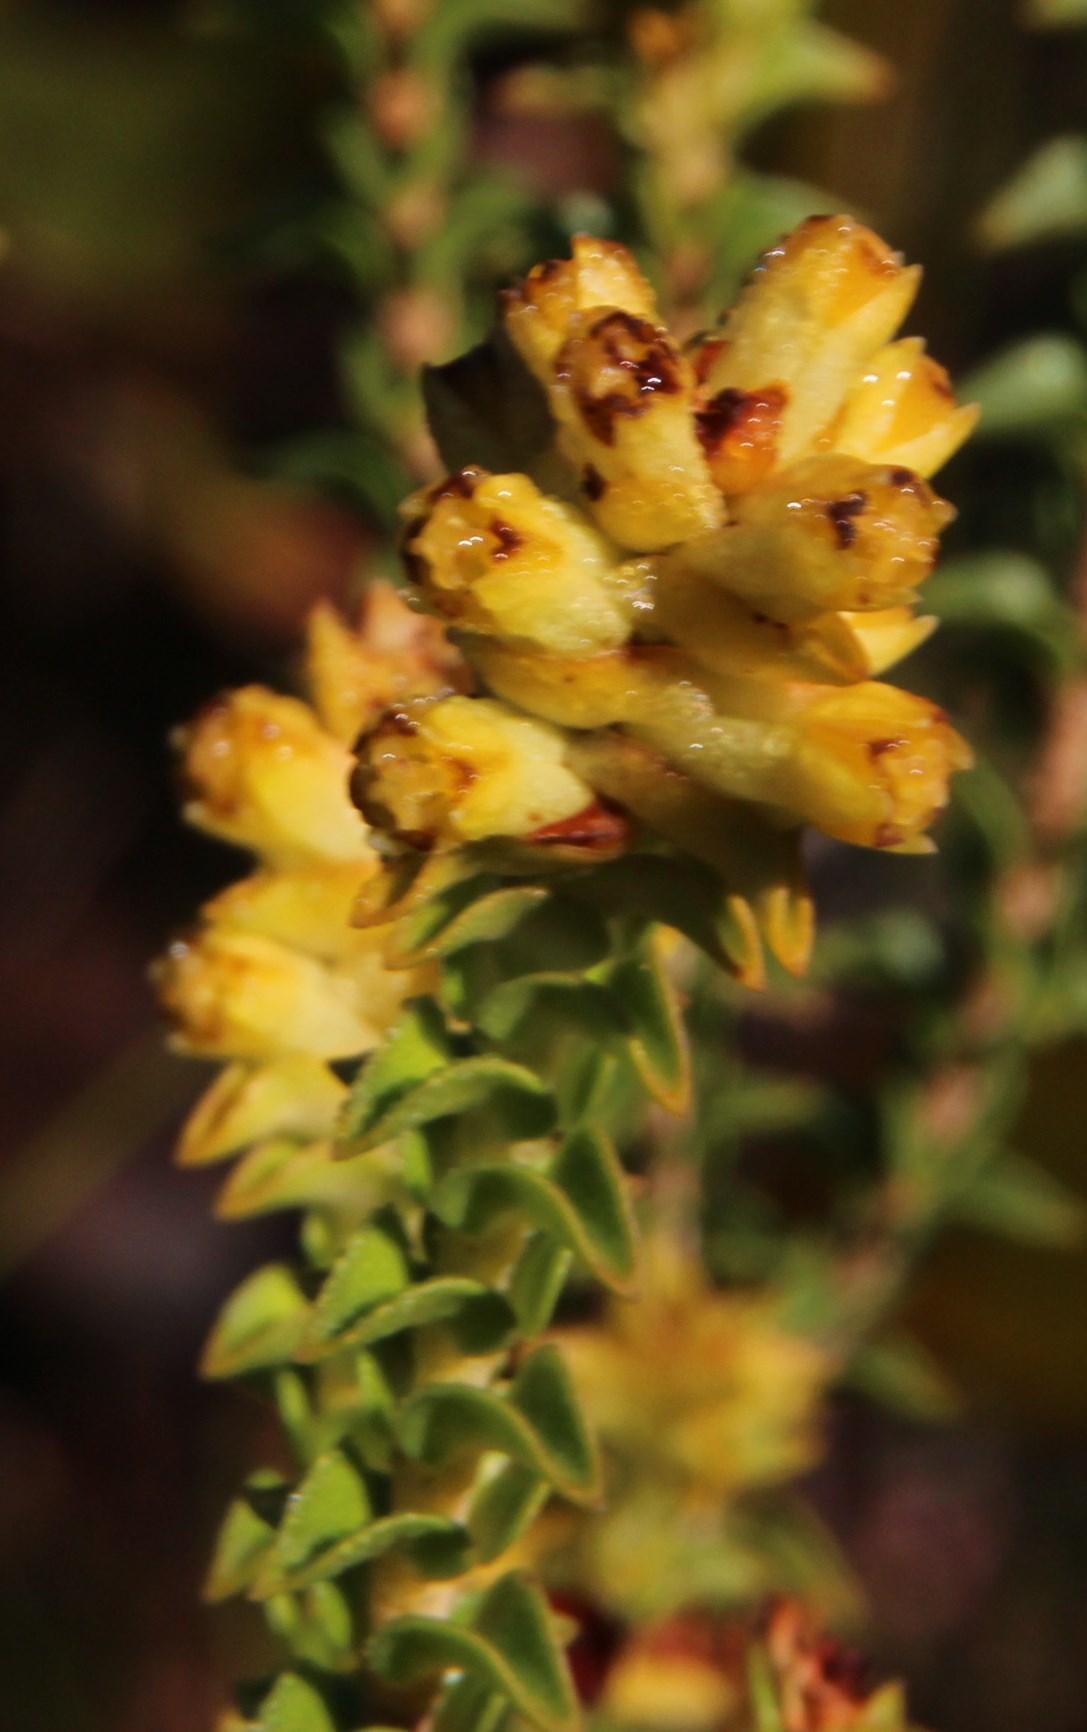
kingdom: Plantae
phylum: Tracheophyta
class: Magnoliopsida
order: Myrtales
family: Penaeaceae
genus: Penaea
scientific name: Penaea mucronata
